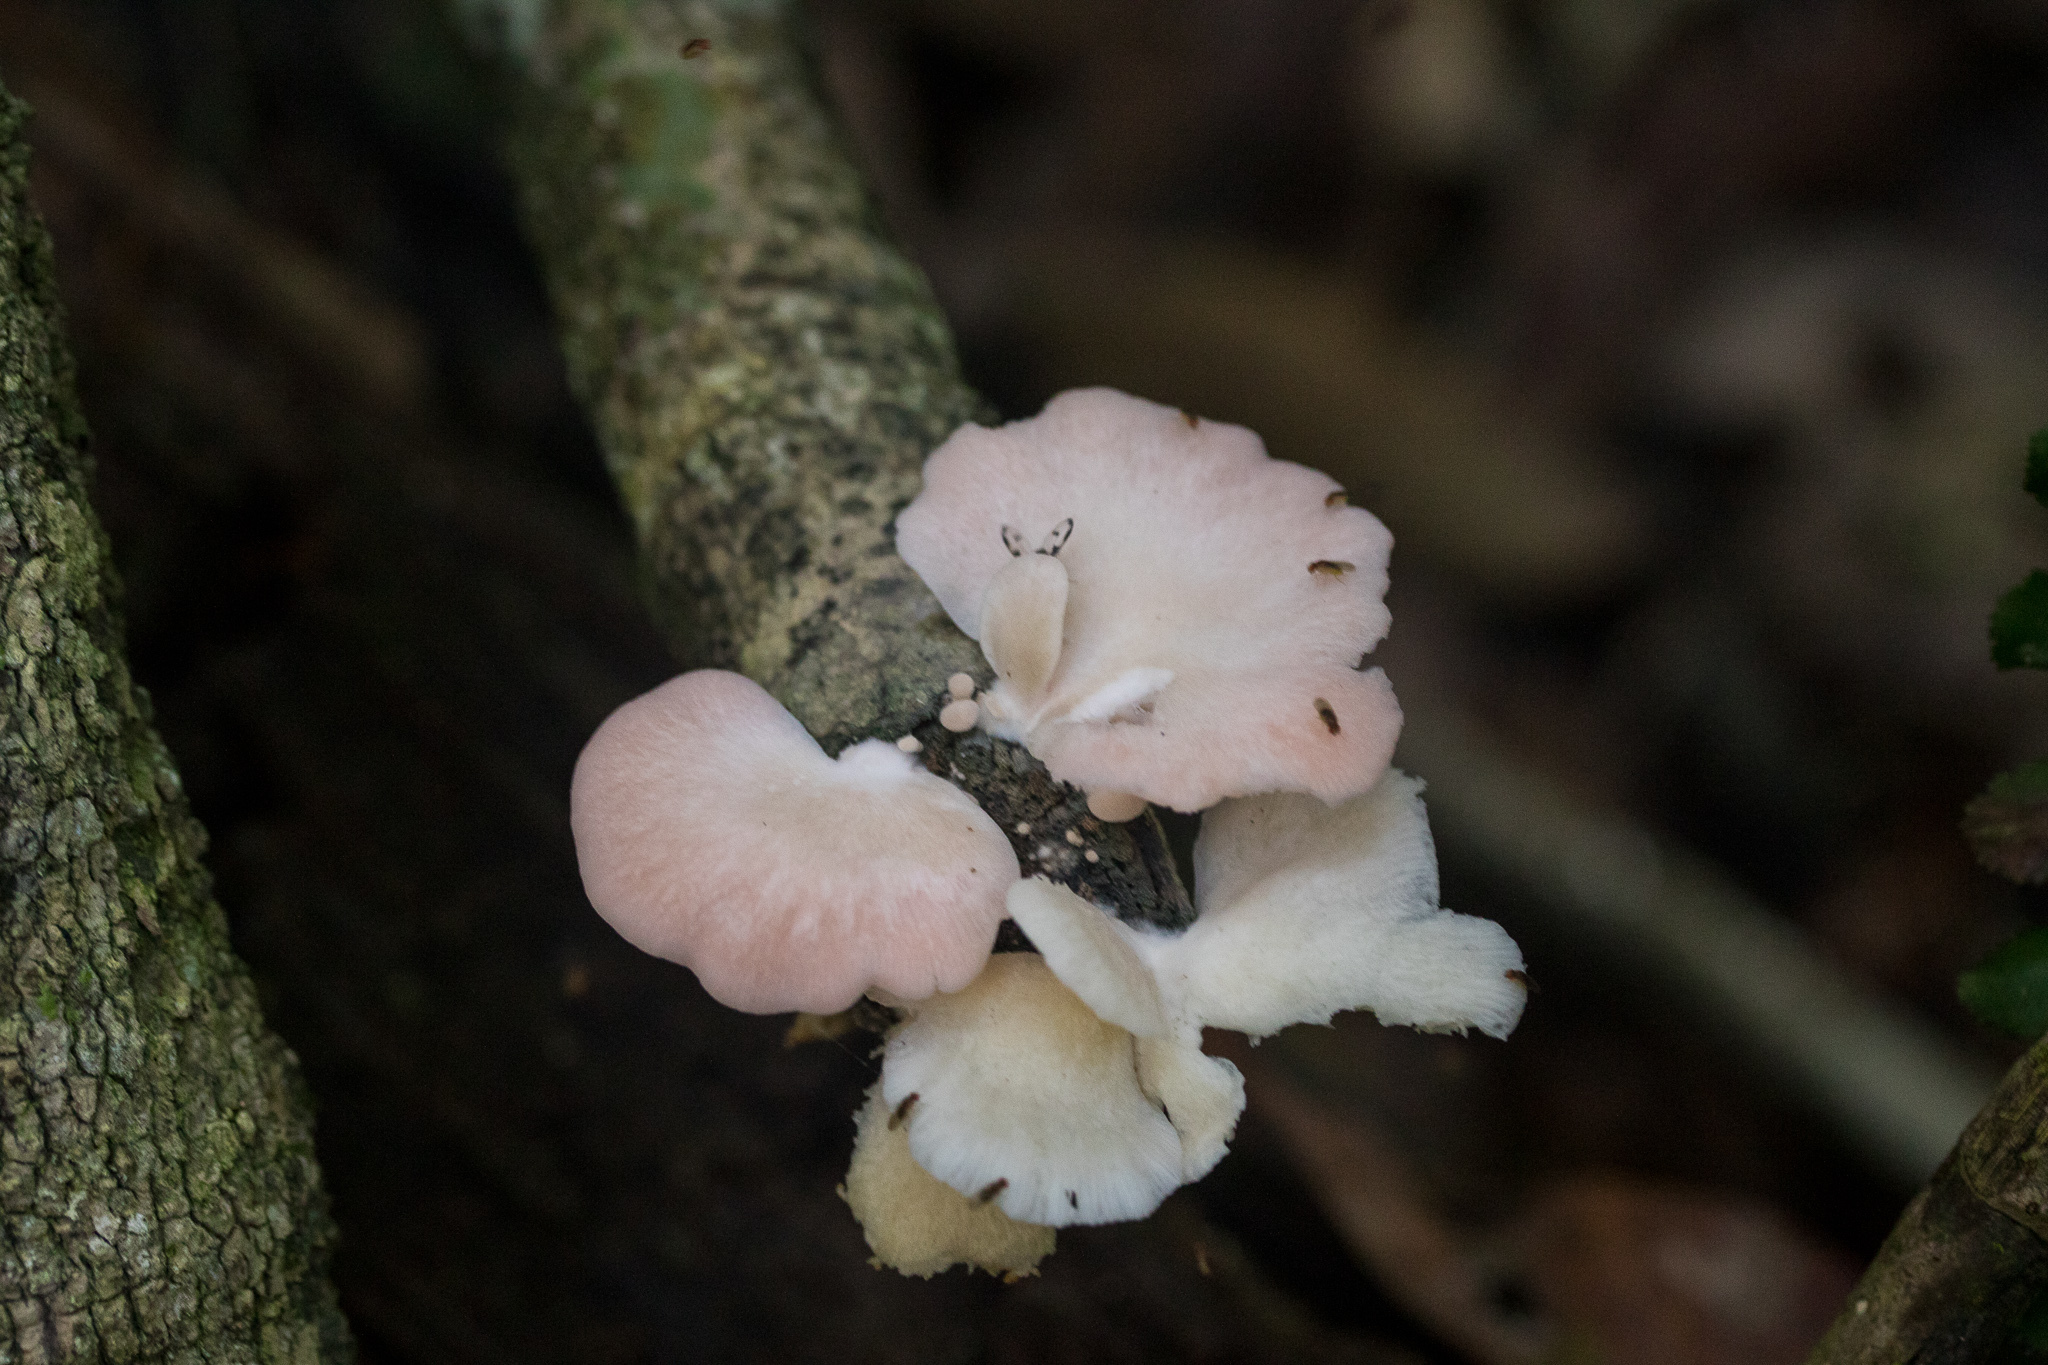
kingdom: Fungi
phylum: Basidiomycota
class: Agaricomycetes
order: Agaricales
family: Pleurotaceae
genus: Pleurotus
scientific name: Pleurotus djamor
